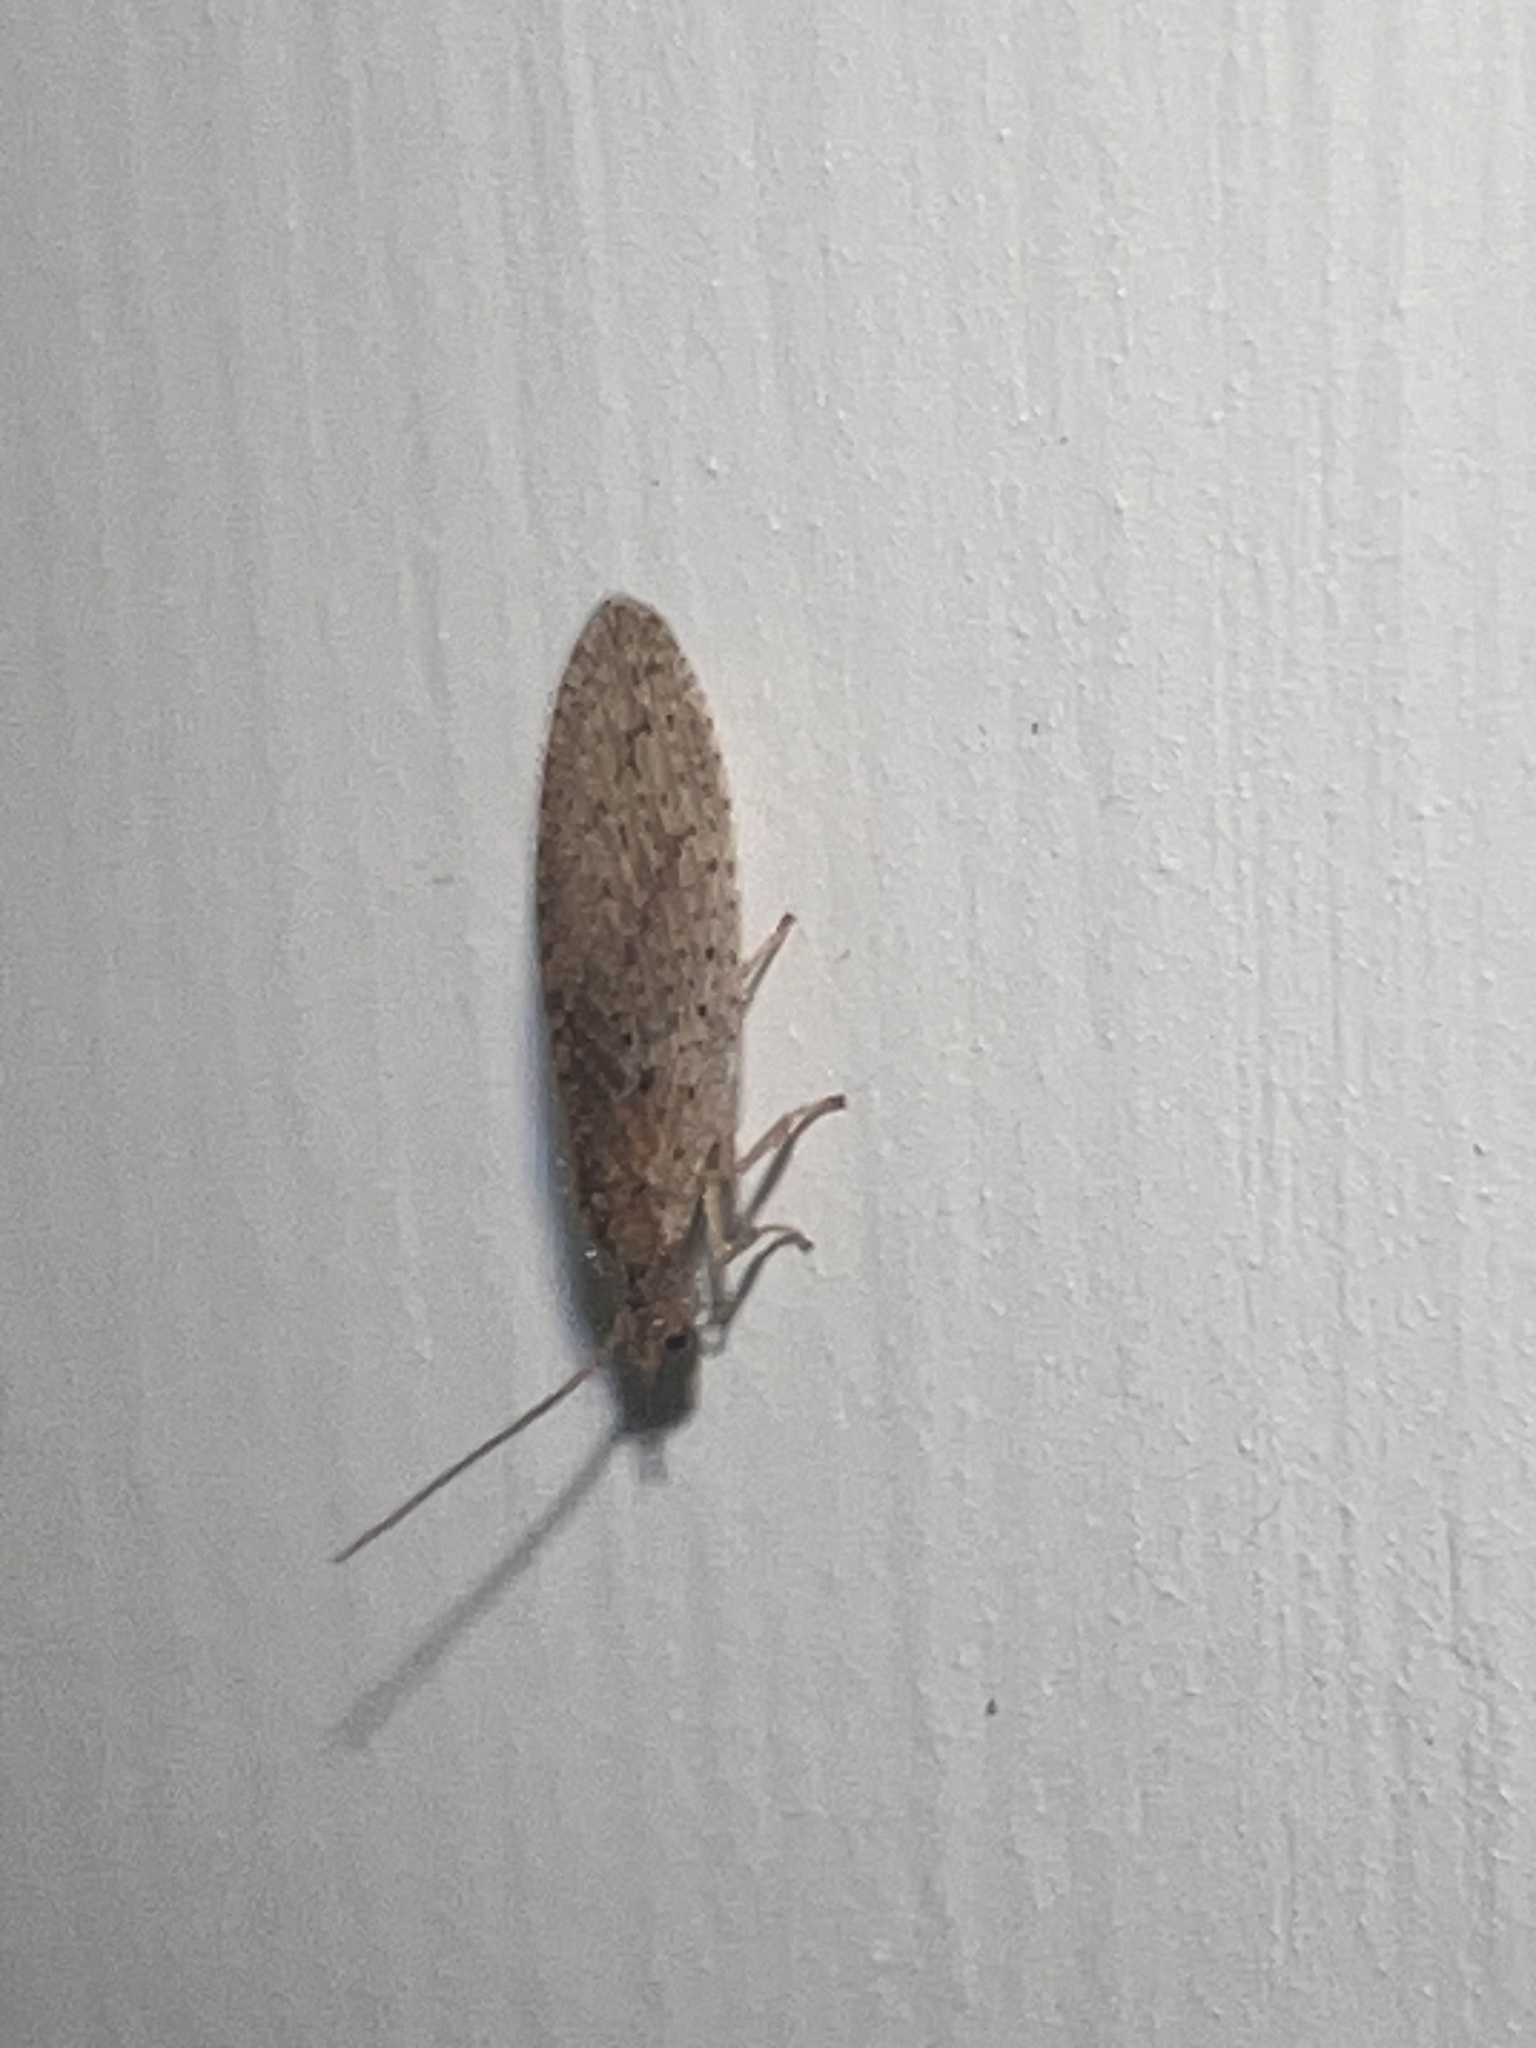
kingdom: Animalia
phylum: Arthropoda
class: Insecta
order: Neuroptera
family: Hemerobiidae
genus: Micromus
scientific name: Micromus tasmaniae
